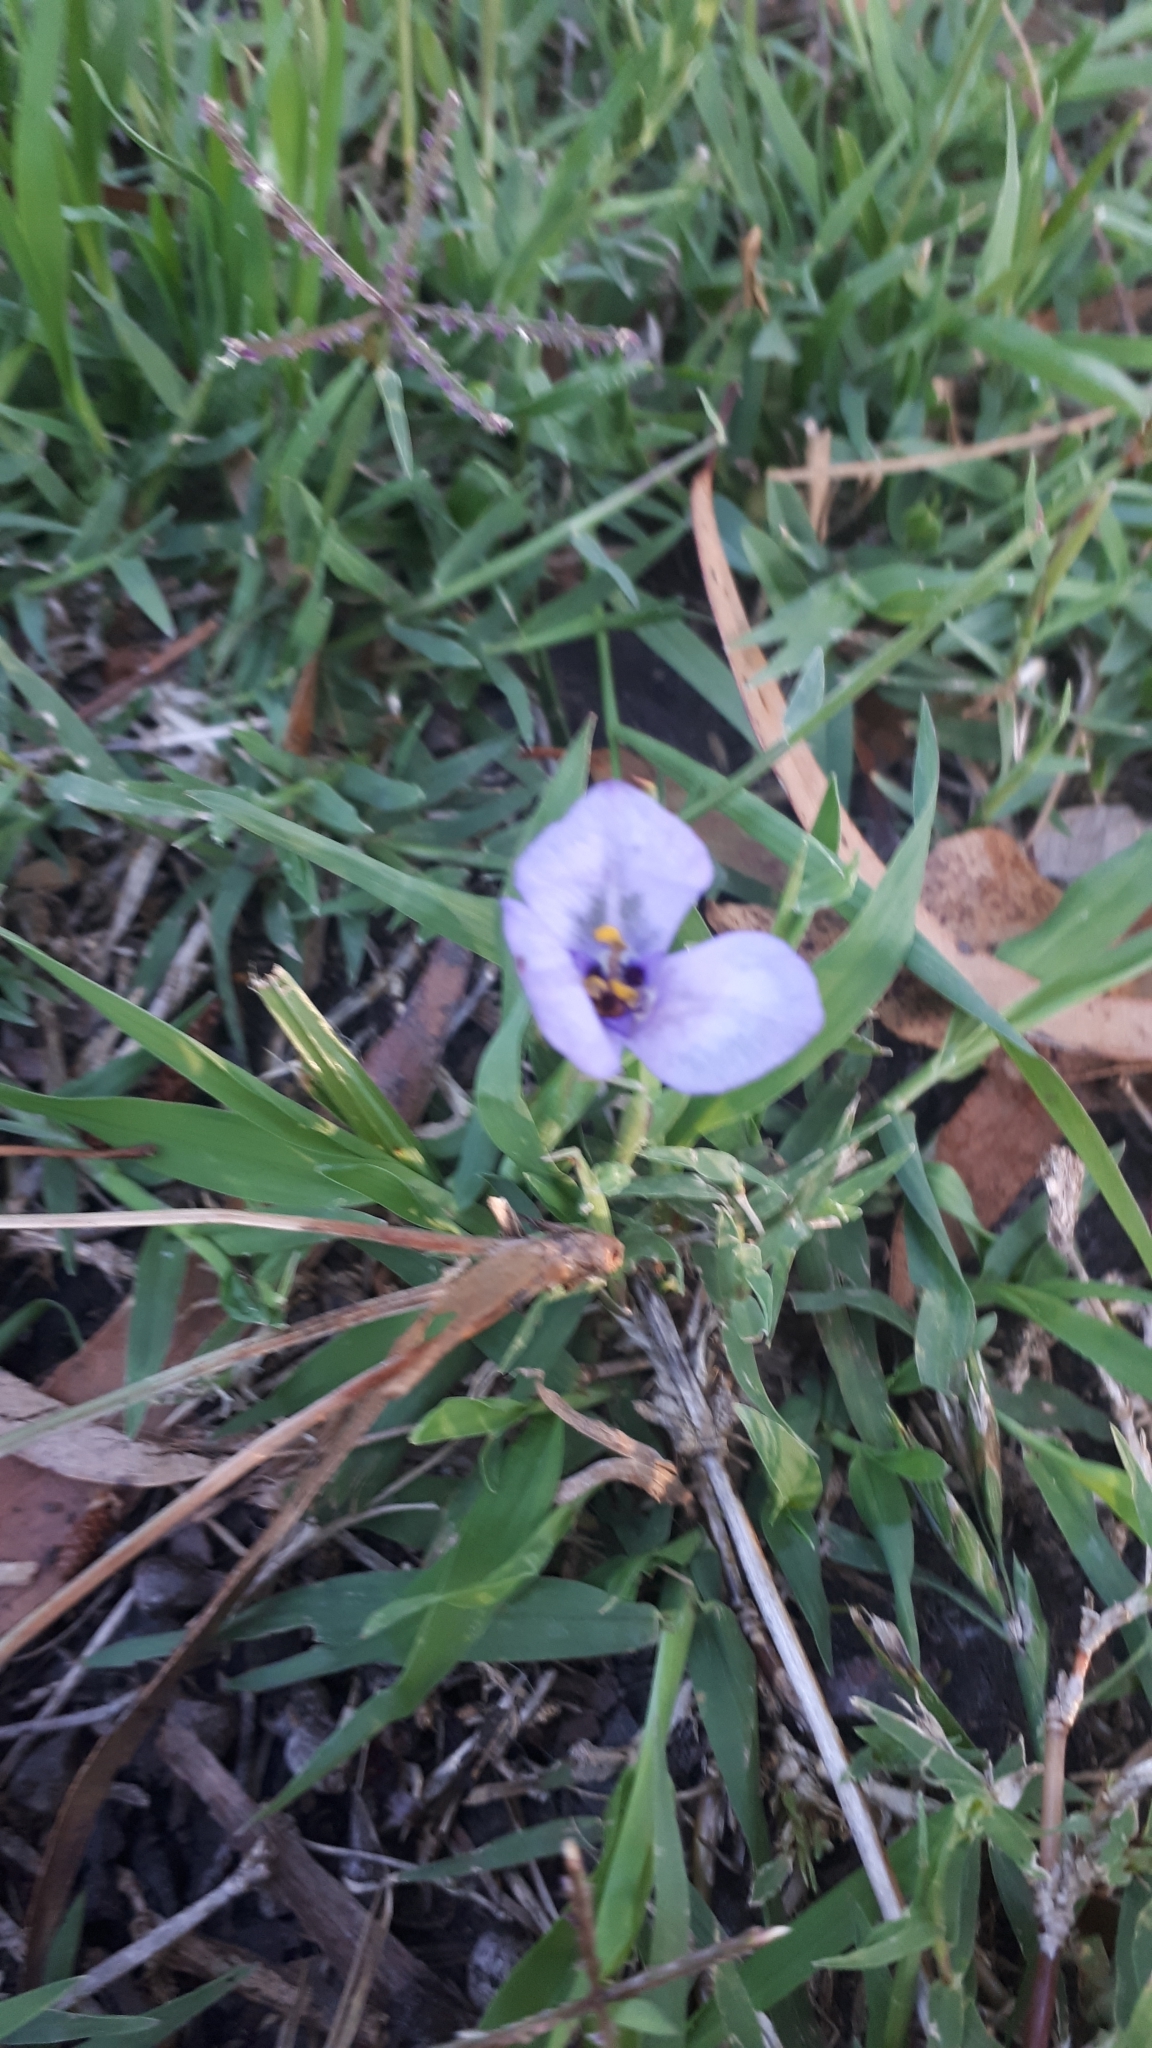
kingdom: Plantae
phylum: Tracheophyta
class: Liliopsida
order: Asparagales
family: Iridaceae
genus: Herbertia
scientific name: Herbertia lahue
